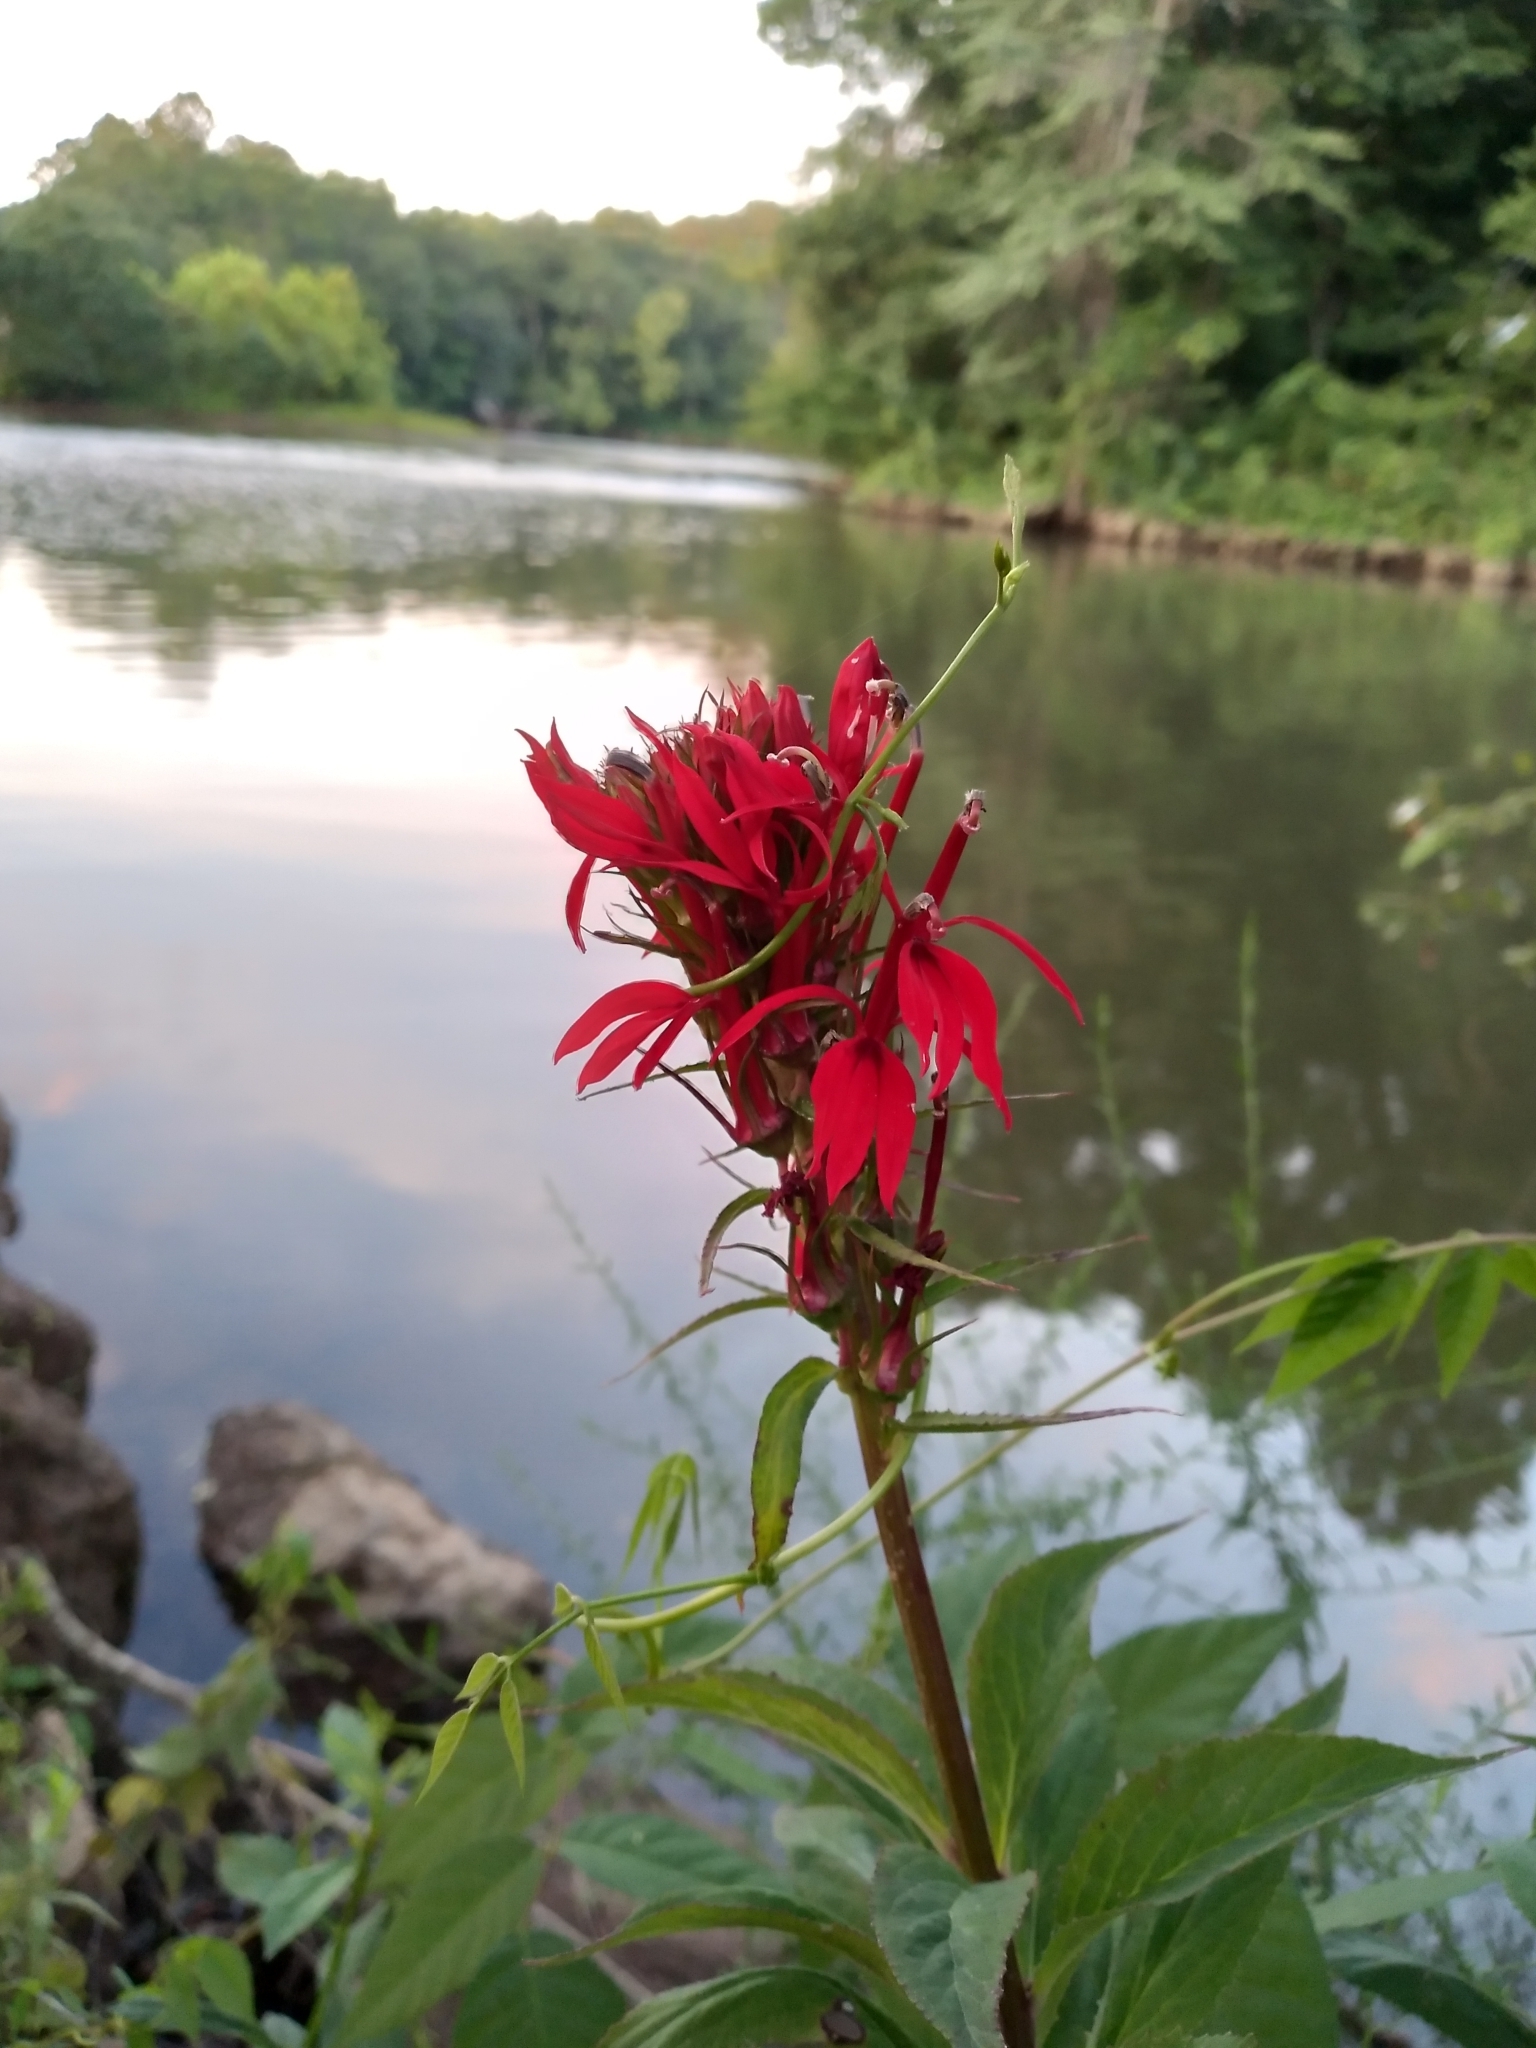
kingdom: Plantae
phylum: Tracheophyta
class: Magnoliopsida
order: Asterales
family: Campanulaceae
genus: Lobelia
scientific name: Lobelia cardinalis
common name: Cardinal flower
